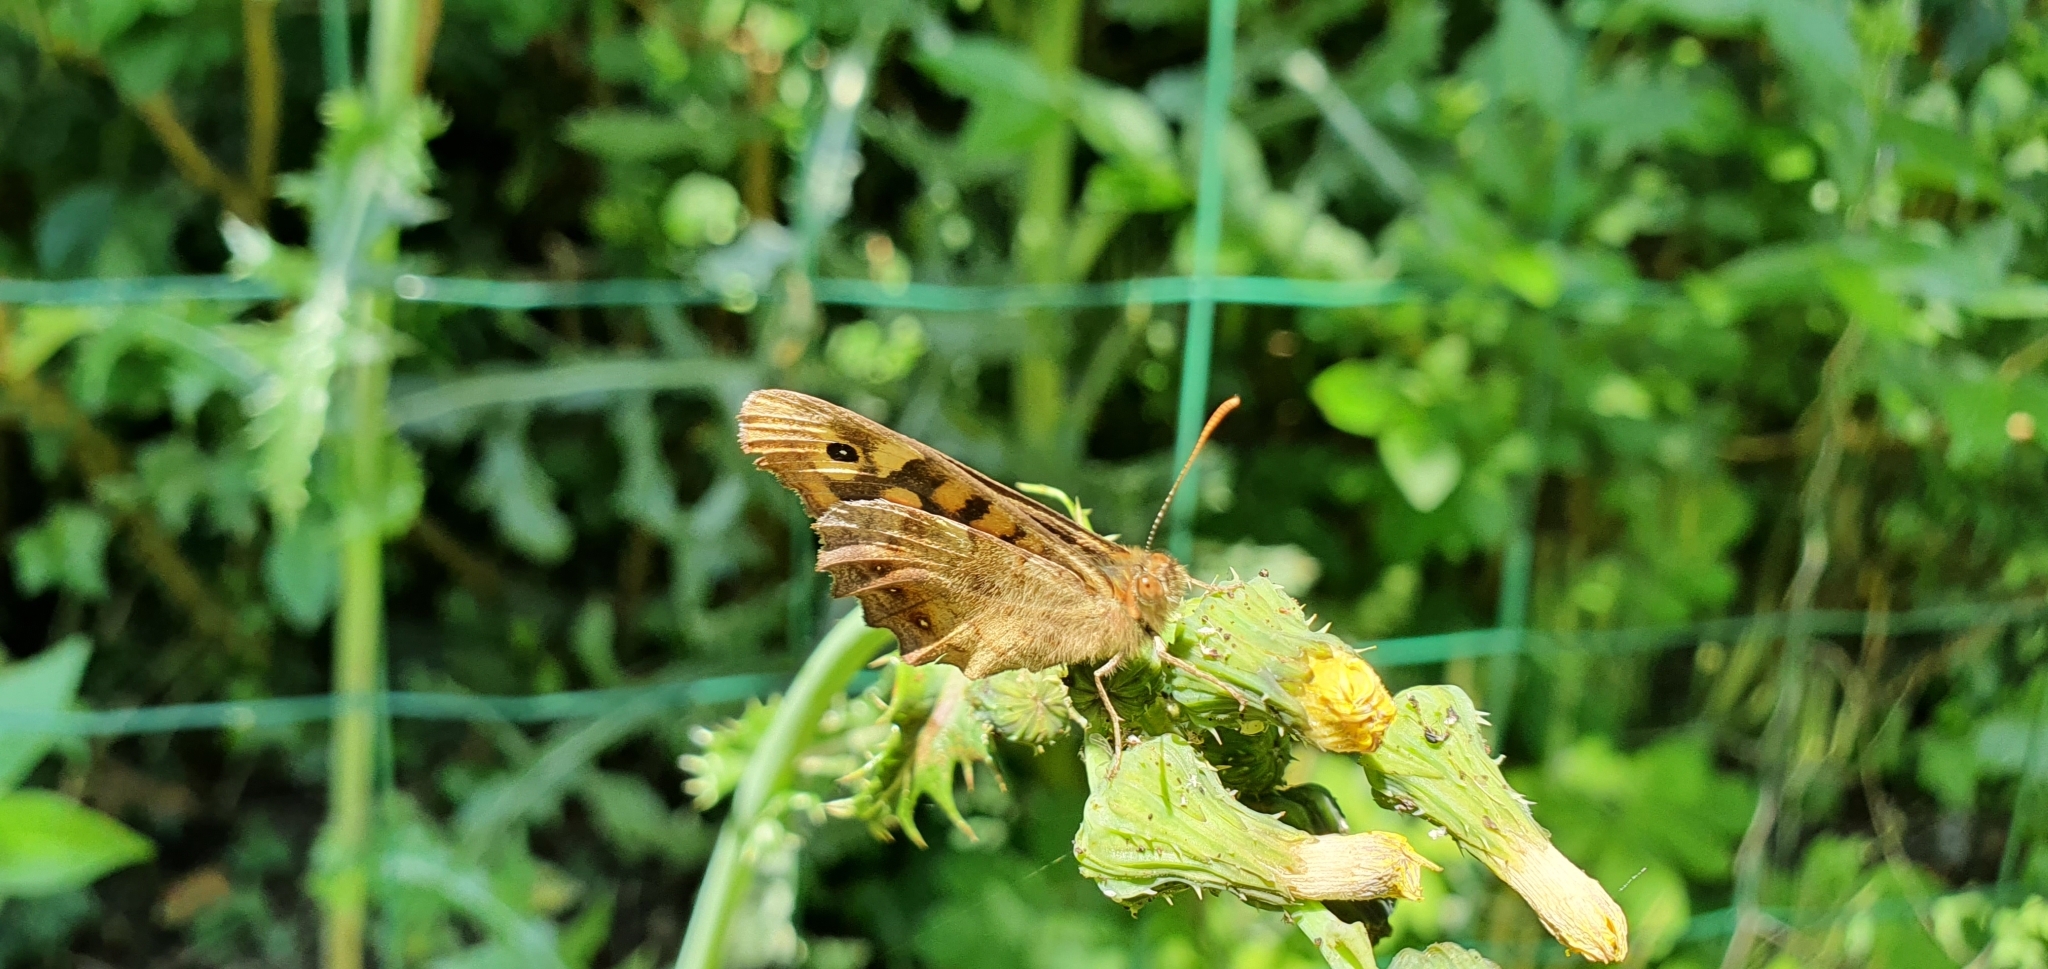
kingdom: Animalia
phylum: Arthropoda
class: Insecta
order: Lepidoptera
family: Nymphalidae
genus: Pararge
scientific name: Pararge aegeria
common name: Speckled wood
